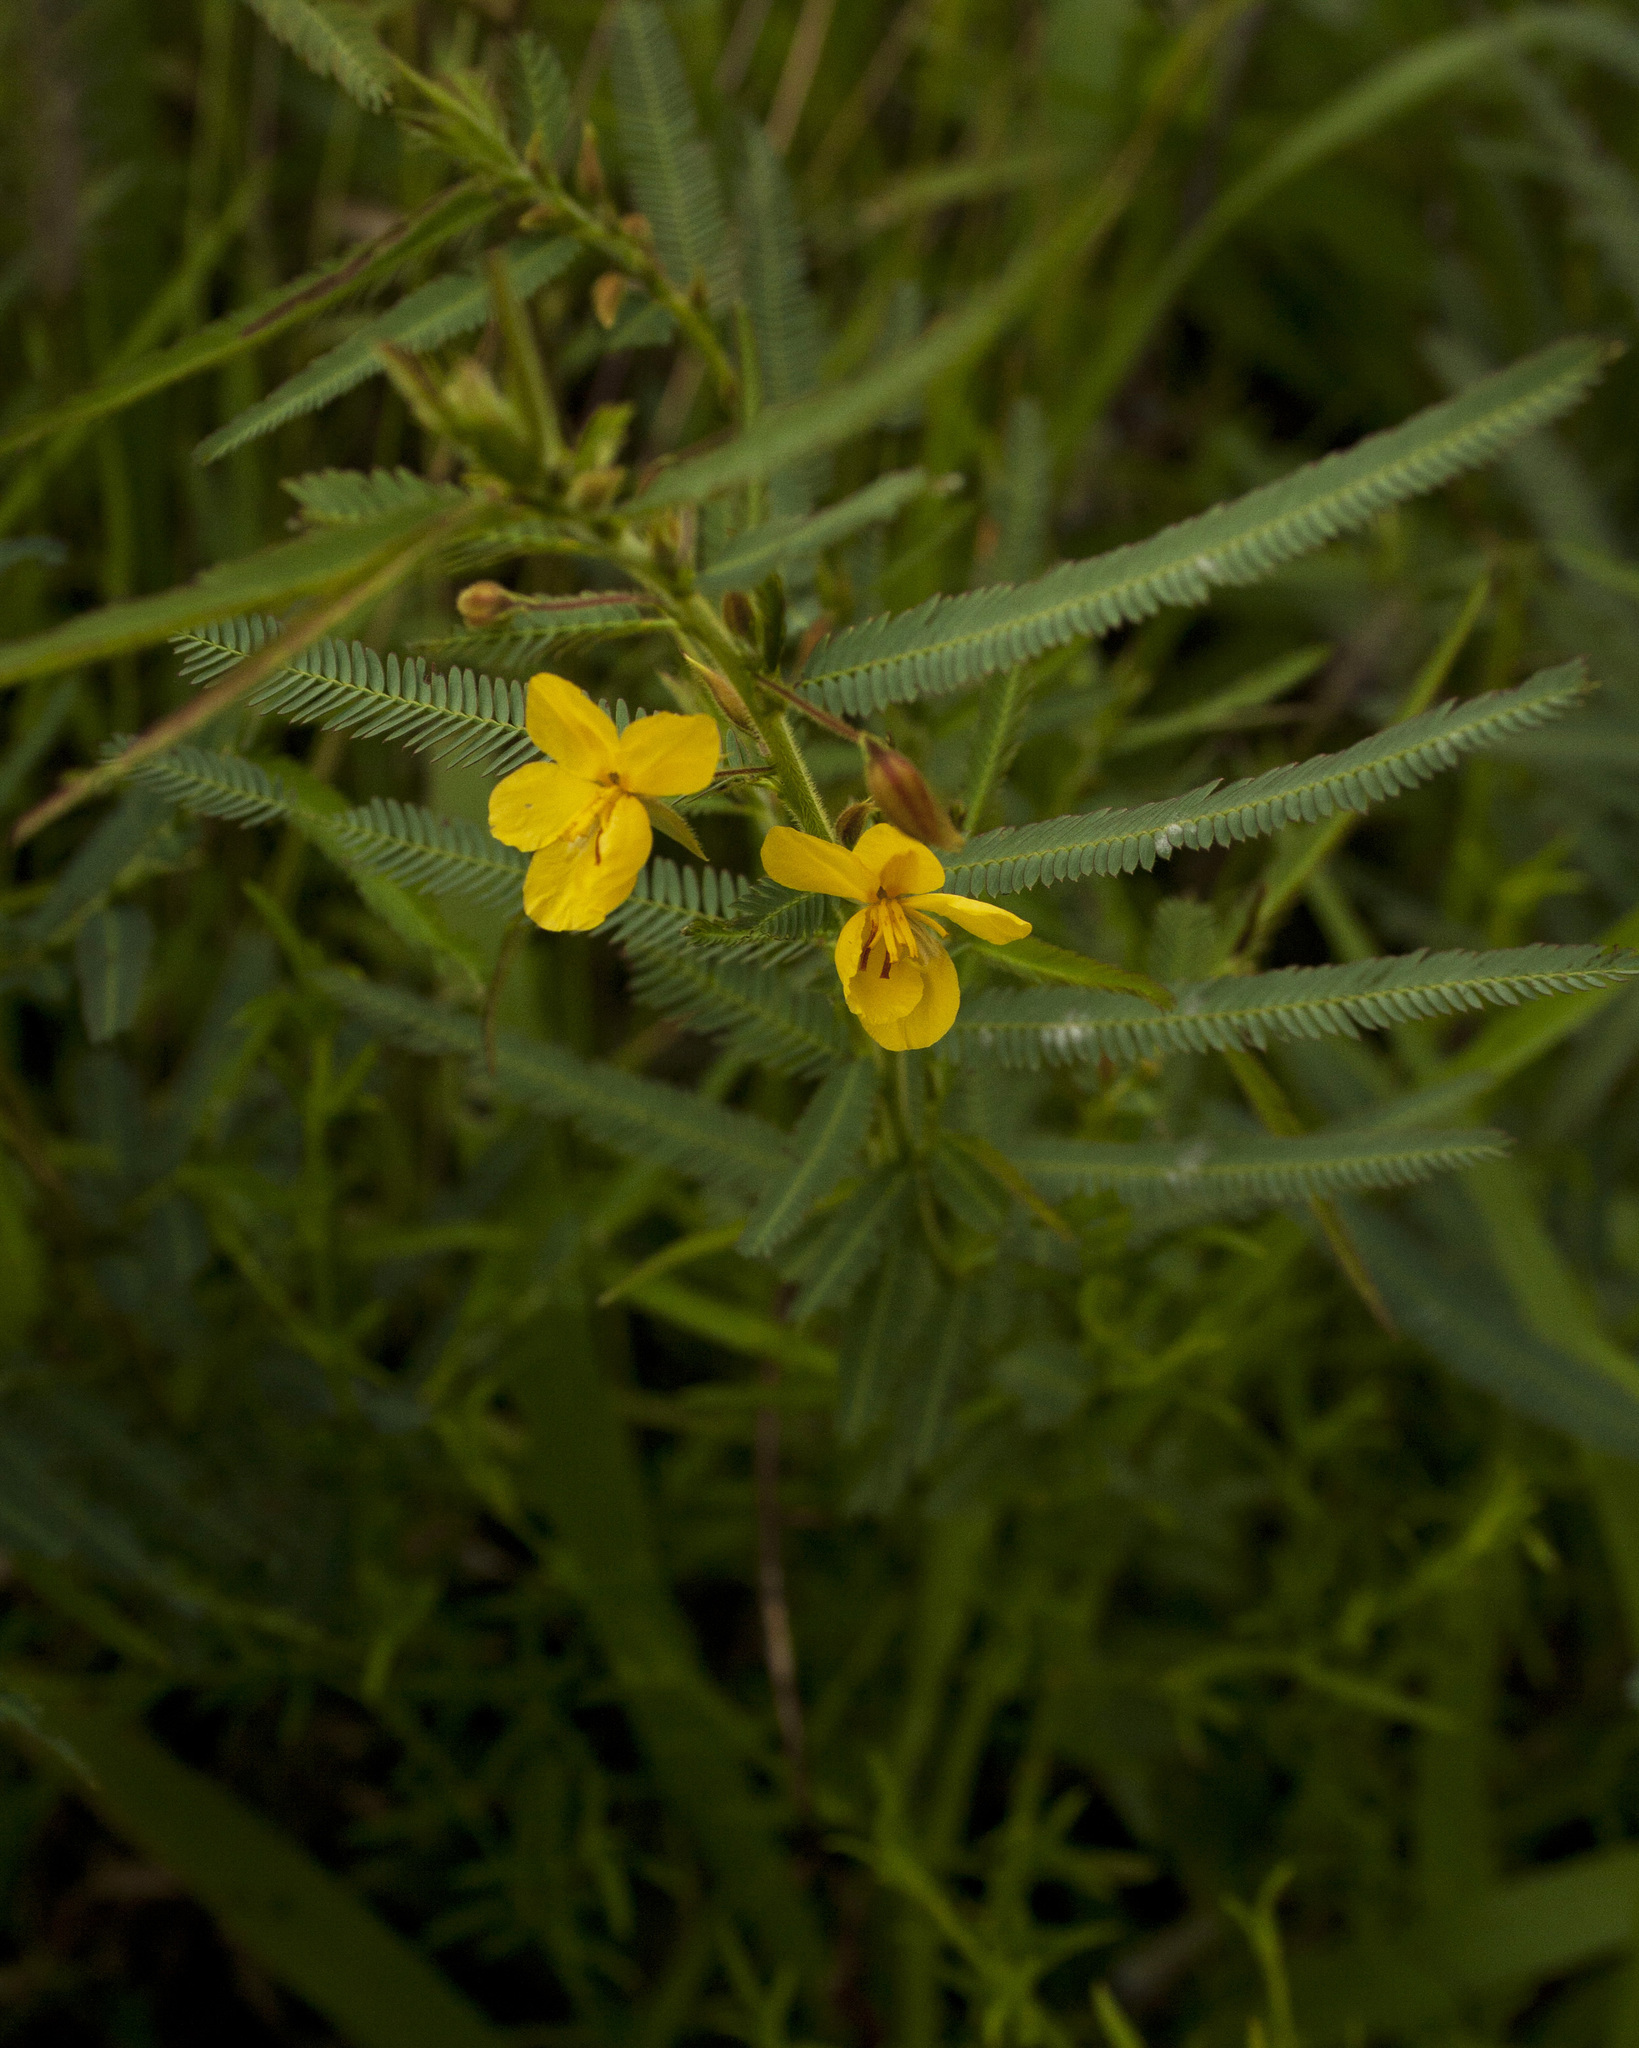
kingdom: Plantae
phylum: Tracheophyta
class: Magnoliopsida
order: Fabales
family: Fabaceae
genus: Chamaecrista
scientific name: Chamaecrista mimosoides
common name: Fish-bone cassia
